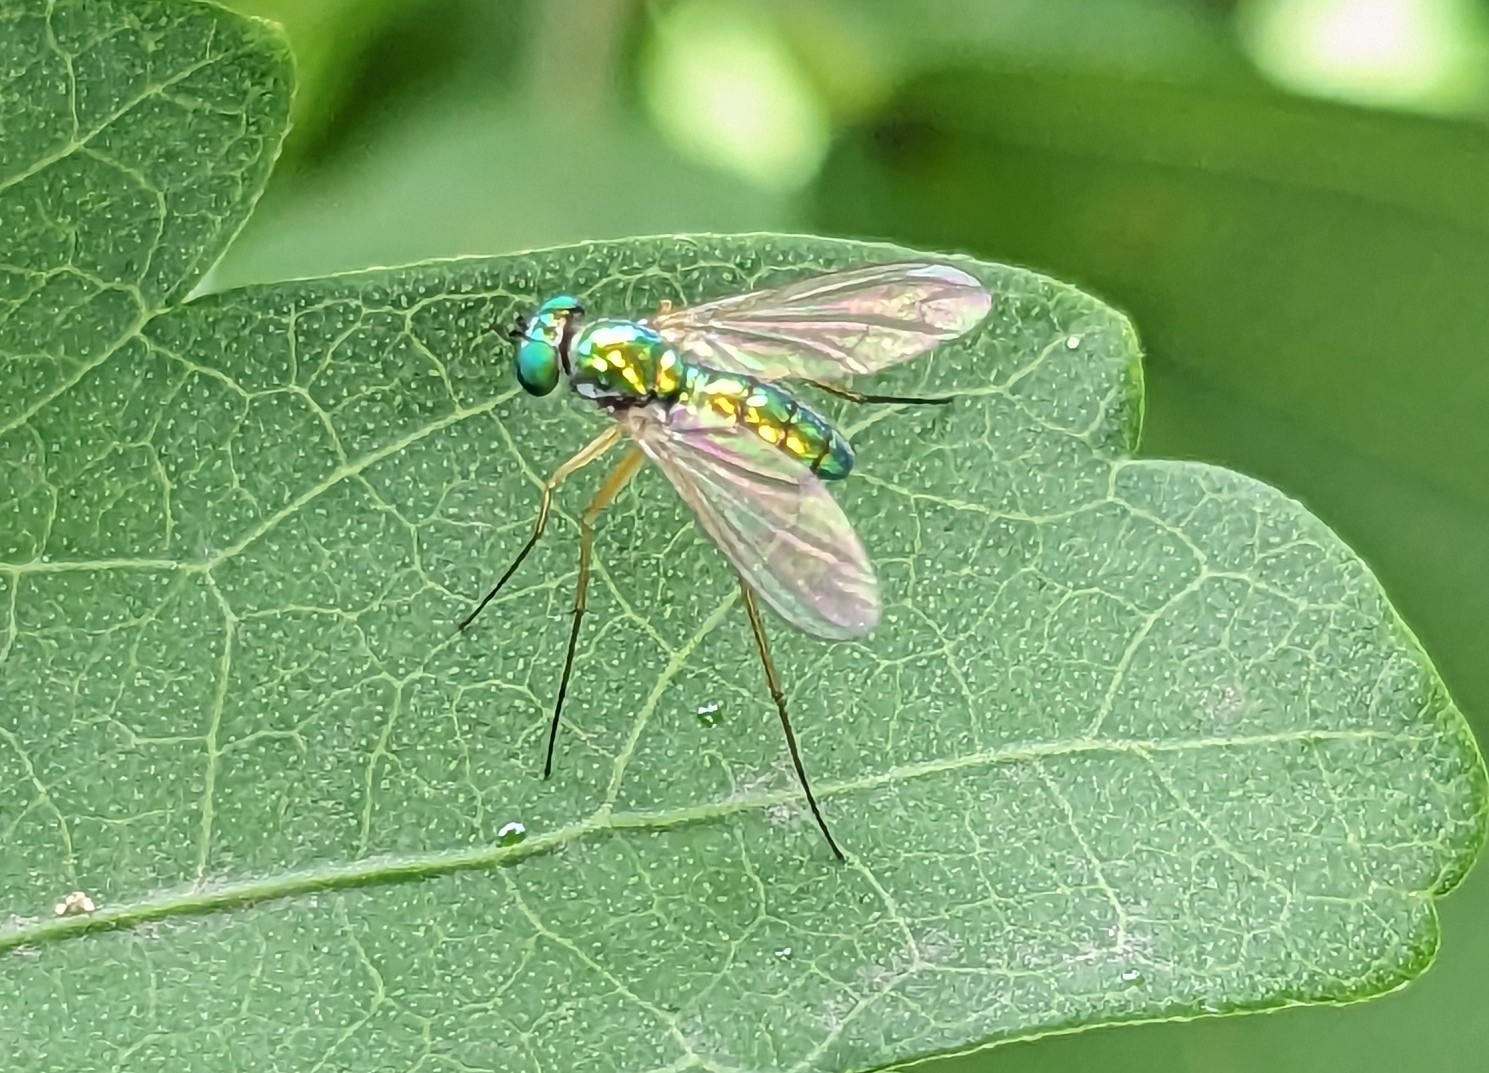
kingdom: Animalia
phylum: Arthropoda
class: Insecta
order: Diptera
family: Dolichopodidae
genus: Amblypsilopus
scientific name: Amblypsilopus scintillans
